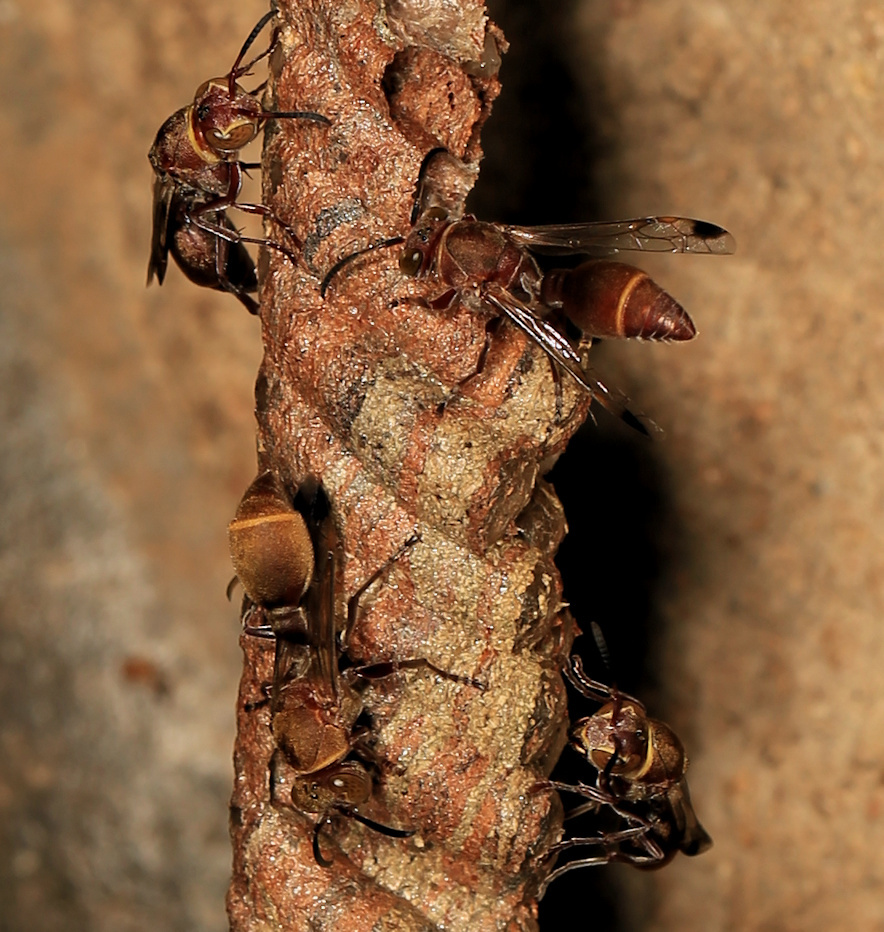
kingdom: Animalia
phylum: Arthropoda
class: Insecta
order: Hymenoptera
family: Vespidae
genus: Ropalidia
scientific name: Ropalidia distigma
